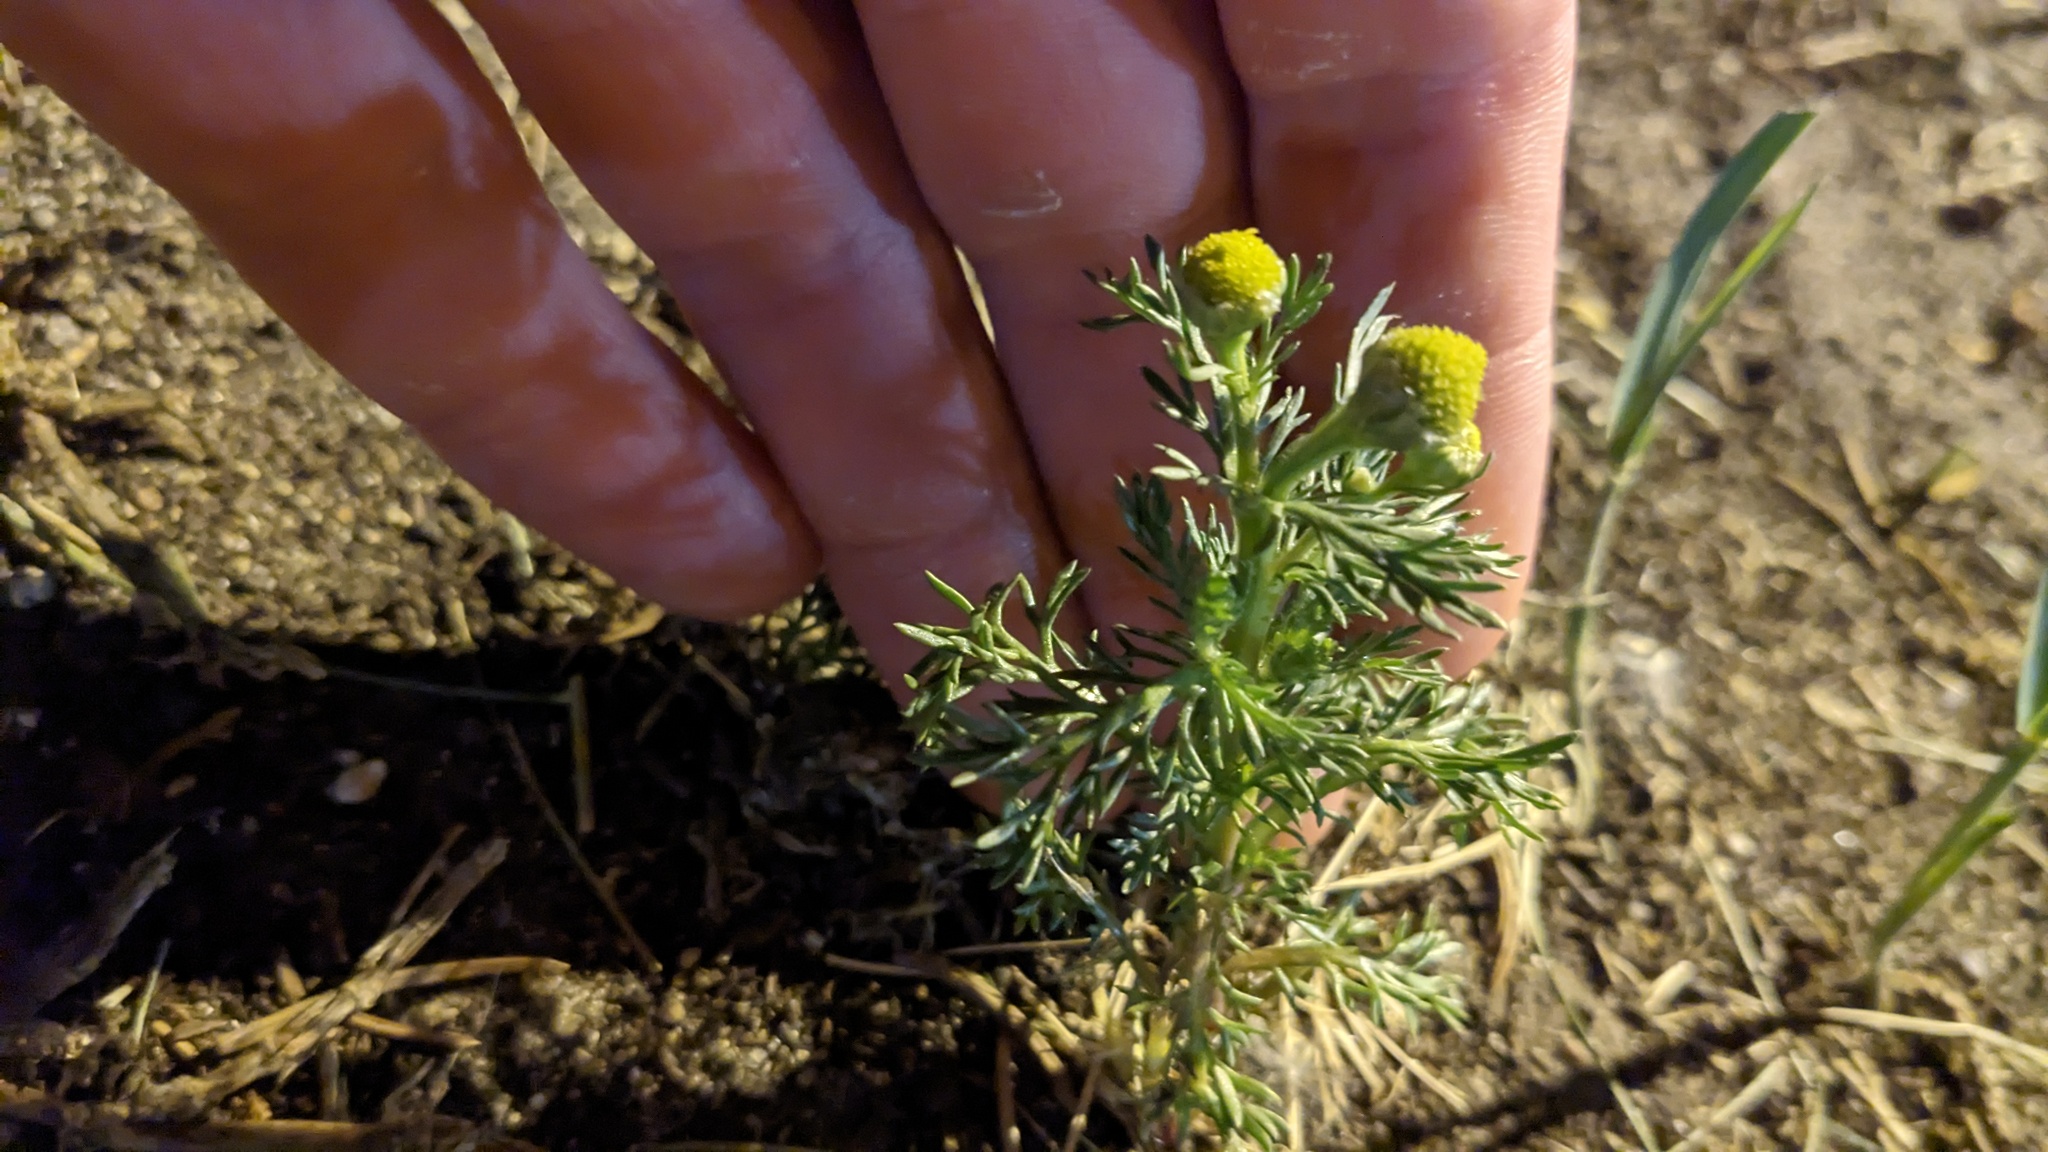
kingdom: Plantae
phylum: Tracheophyta
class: Magnoliopsida
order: Asterales
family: Asteraceae
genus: Matricaria
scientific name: Matricaria discoidea
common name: Disc mayweed
